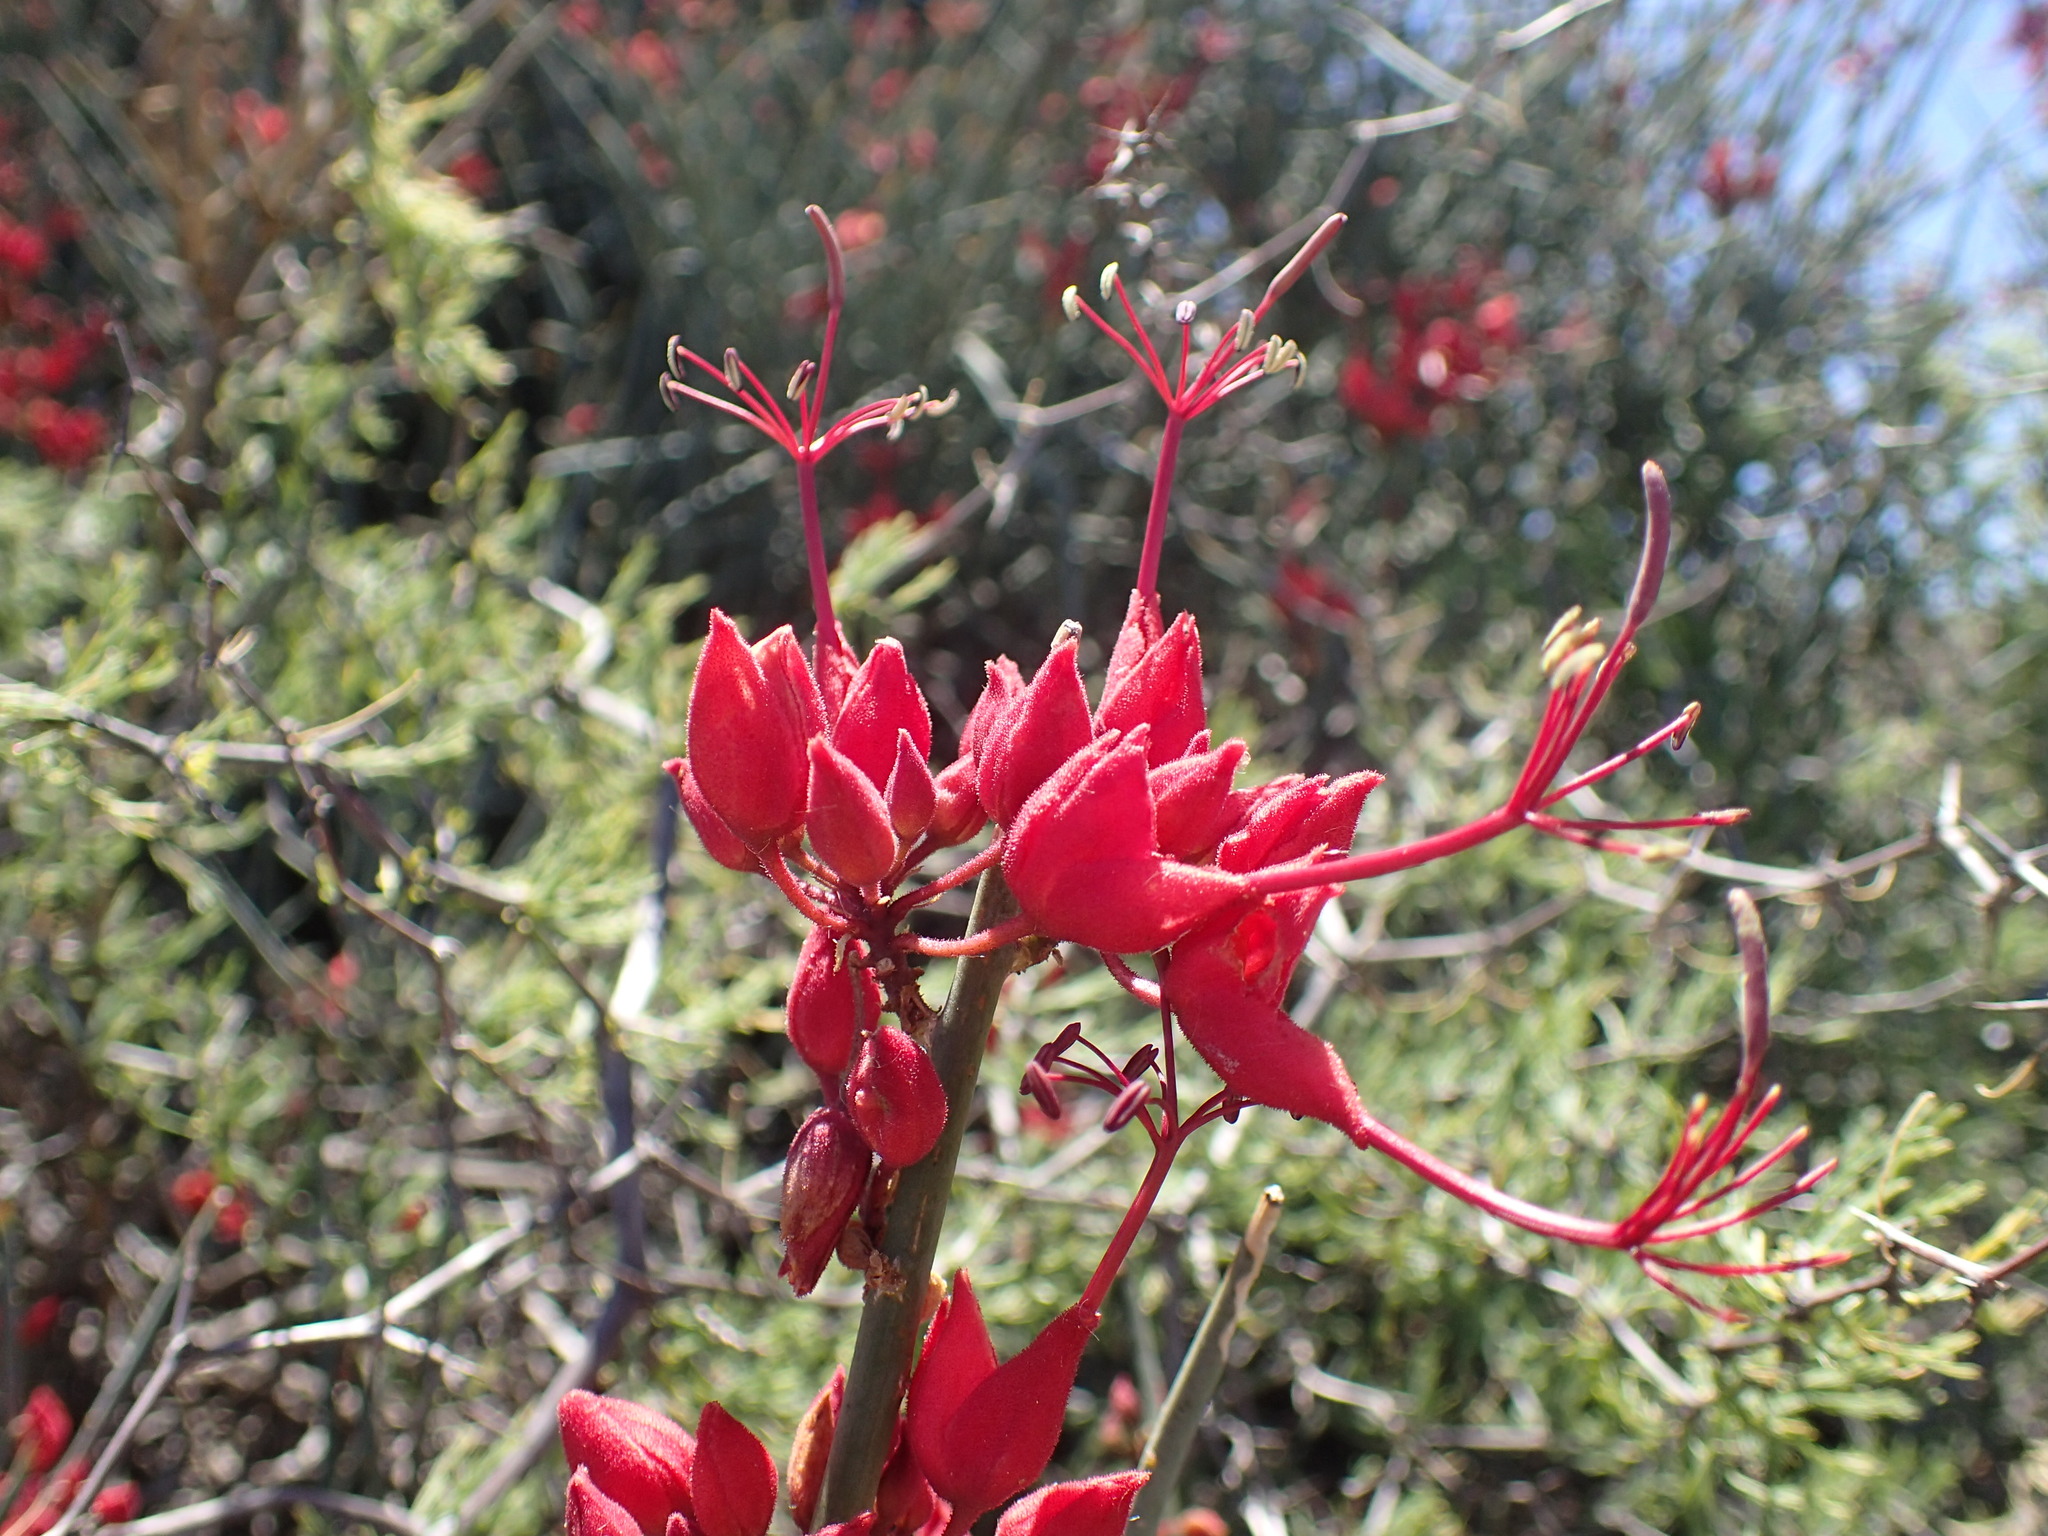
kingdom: Plantae
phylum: Tracheophyta
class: Magnoliopsida
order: Brassicales
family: Capparaceae
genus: Cadaba
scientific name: Cadaba aphylla
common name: Black storm
